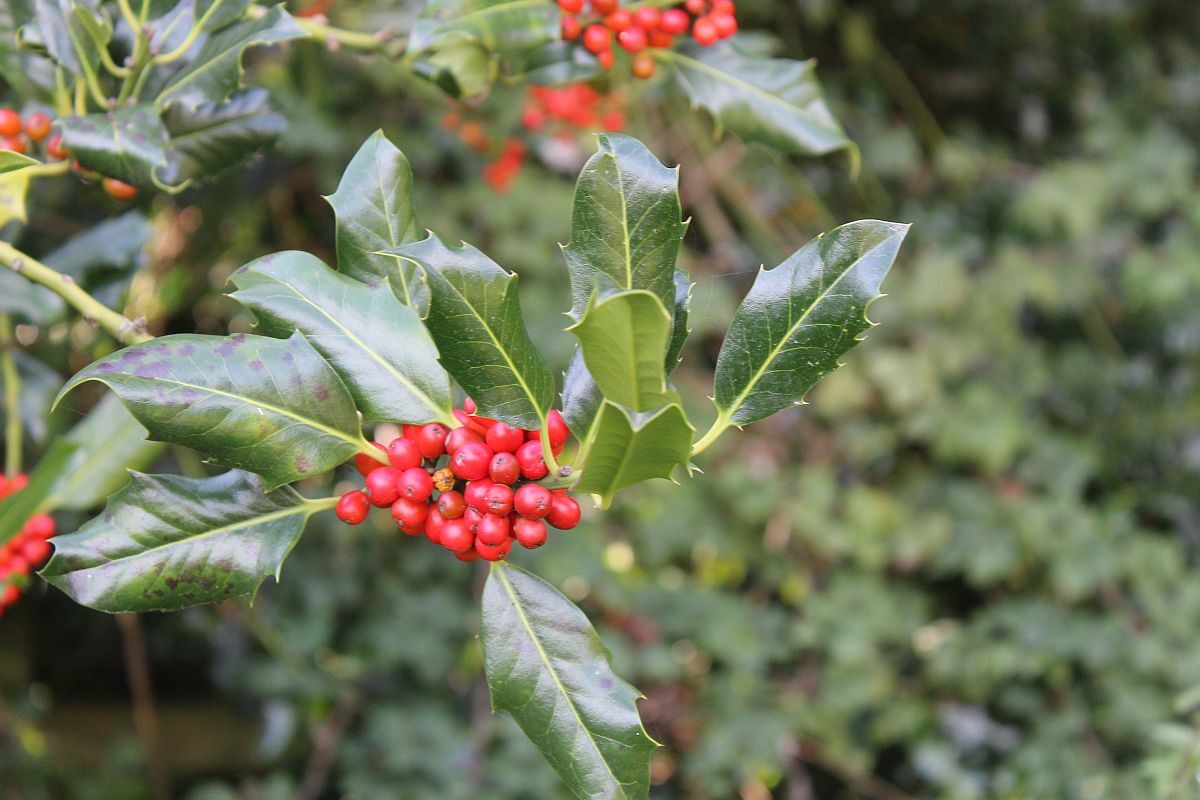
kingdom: Plantae
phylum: Tracheophyta
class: Magnoliopsida
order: Aquifoliales
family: Aquifoliaceae
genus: Ilex
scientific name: Ilex aquifolium
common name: English holly
